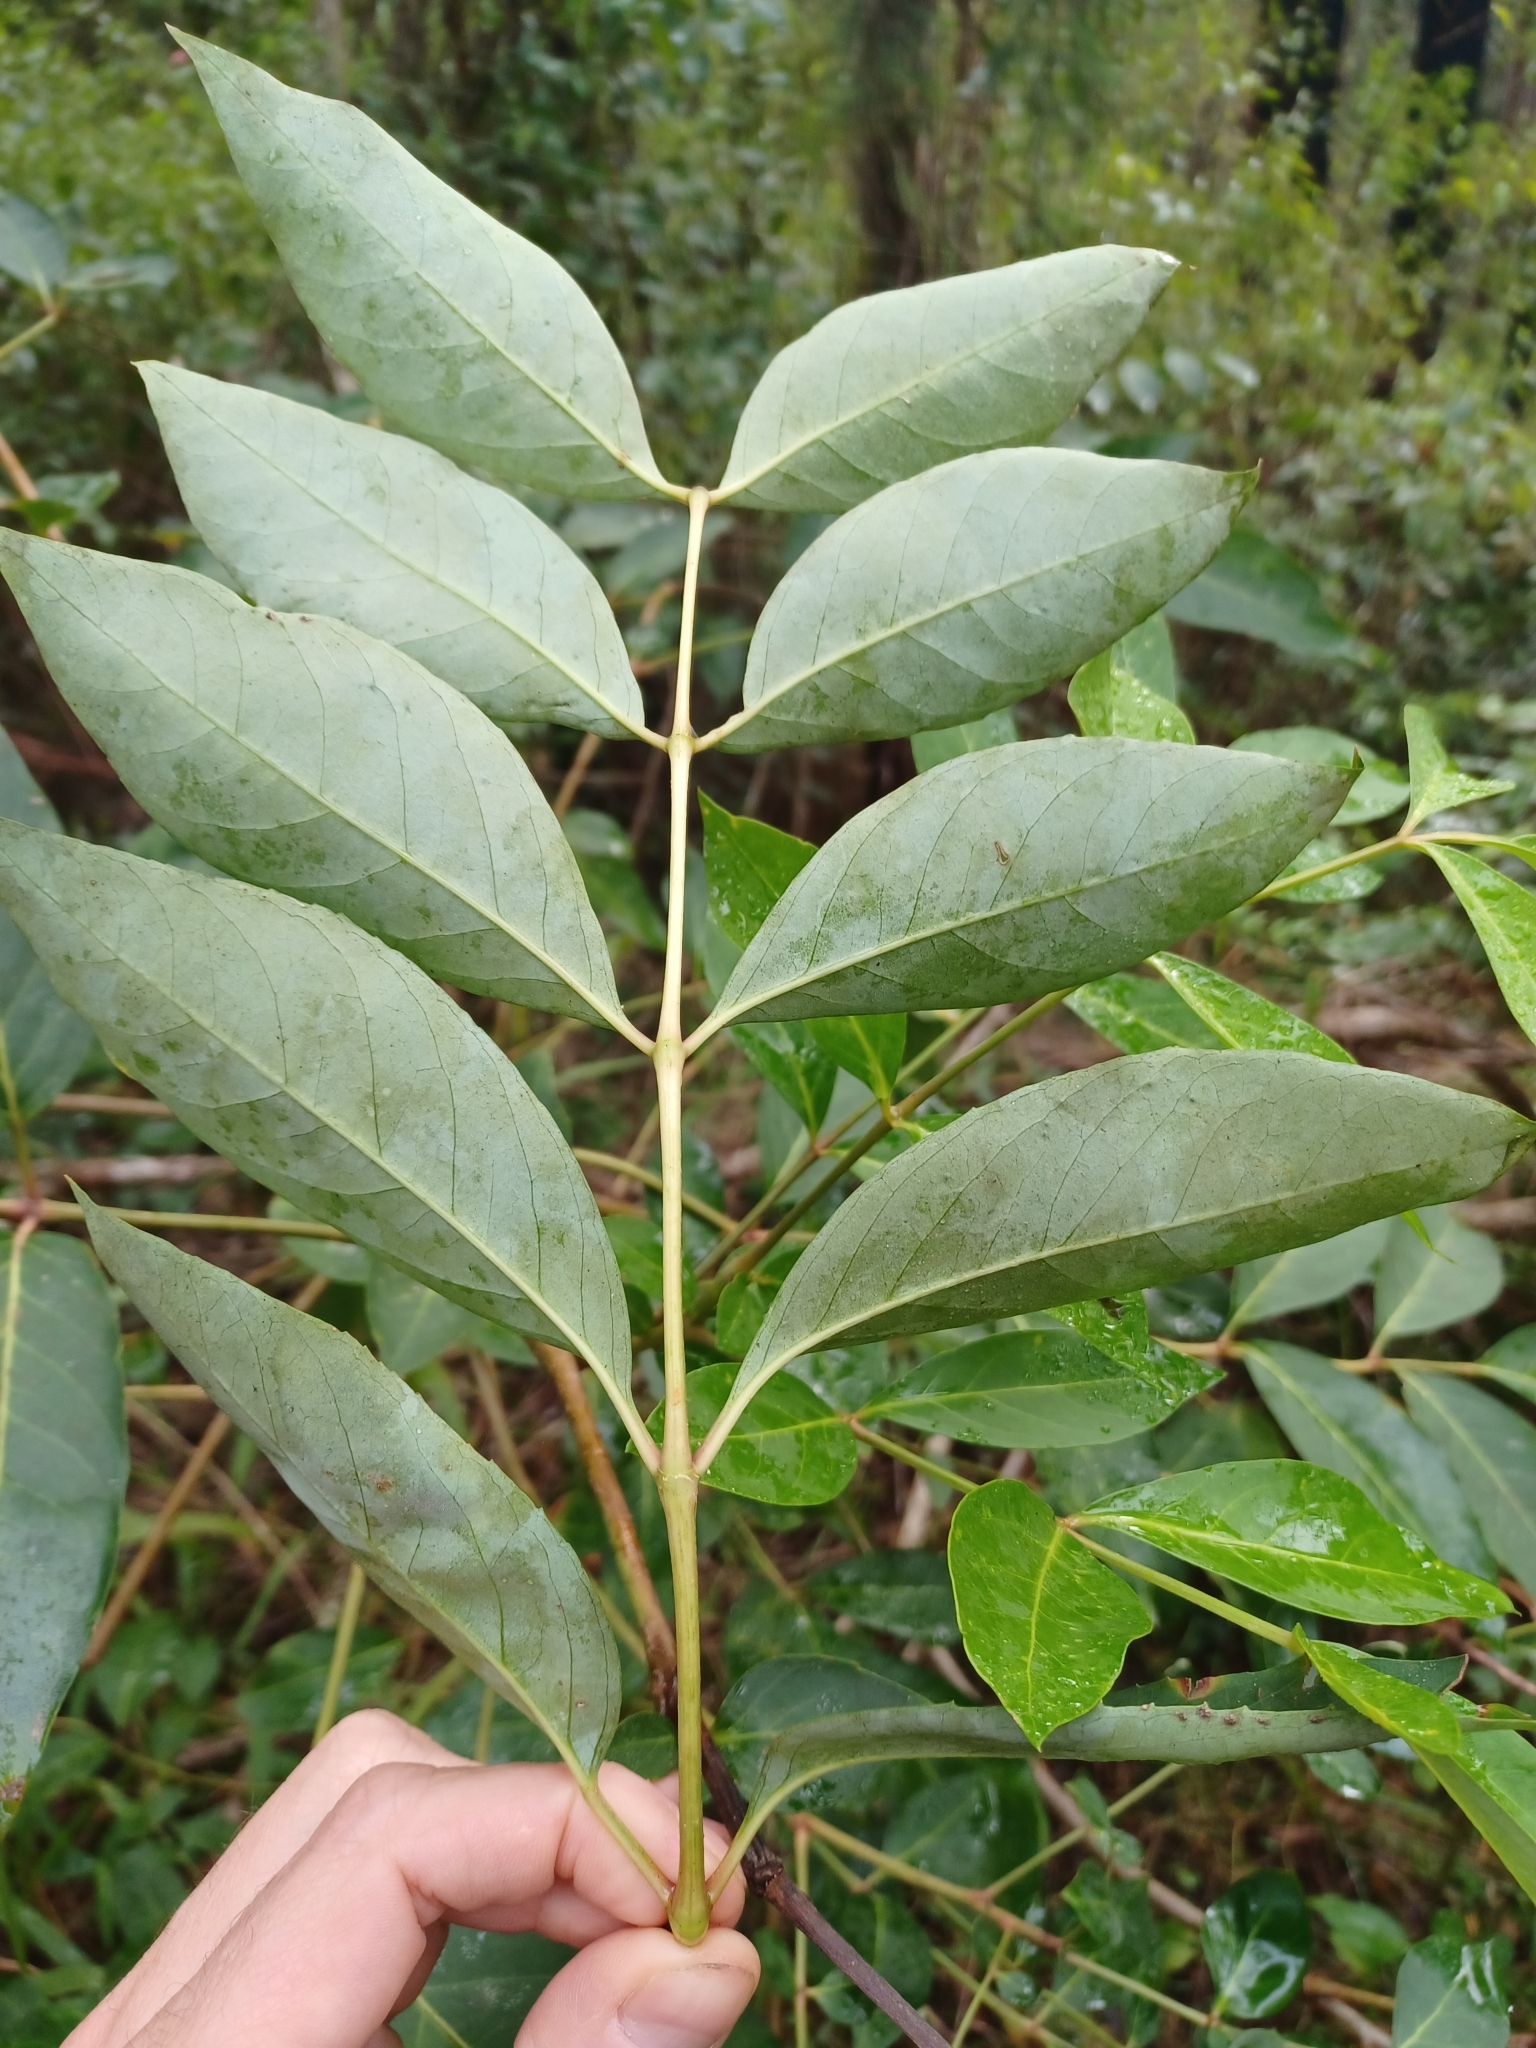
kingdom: Plantae
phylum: Tracheophyta
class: Magnoliopsida
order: Apiales
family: Araliaceae
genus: Polyscias
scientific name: Polyscias sambucifolia
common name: Elderberry-ash
